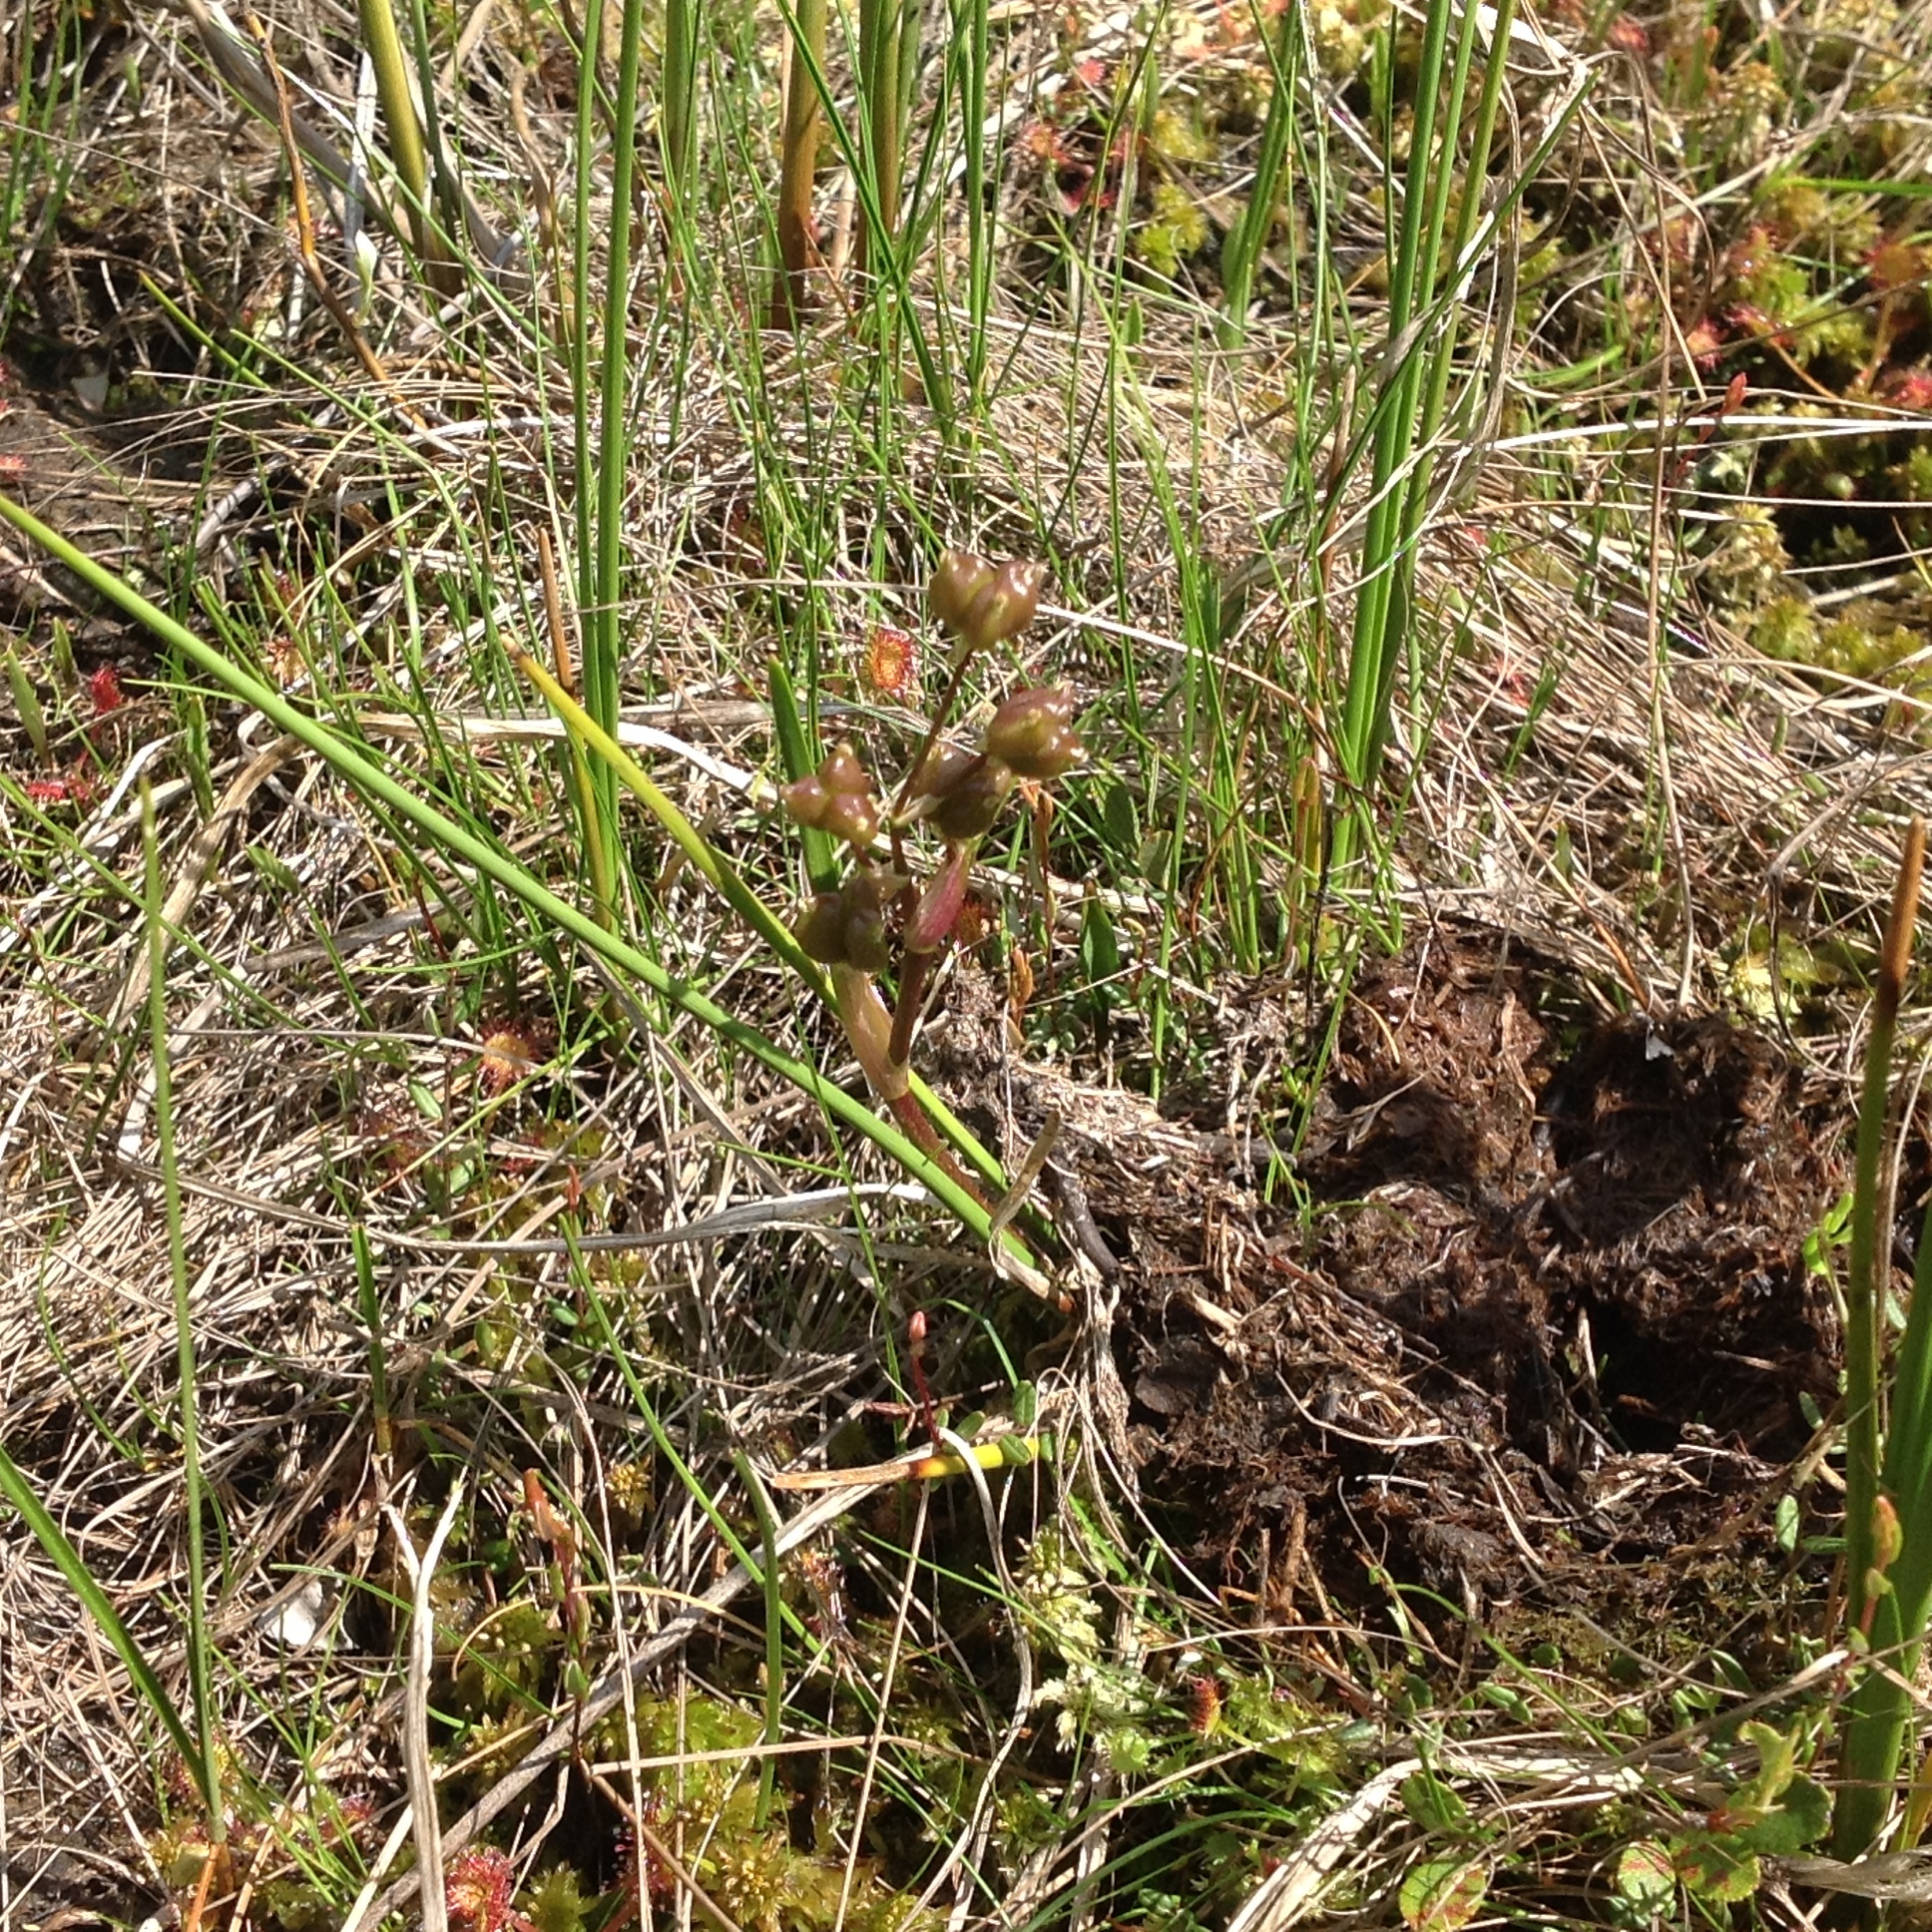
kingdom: Plantae
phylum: Tracheophyta
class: Liliopsida
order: Alismatales
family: Scheuchzeriaceae
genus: Scheuchzeria
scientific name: Scheuchzeria palustris
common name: Rannoch-rush
